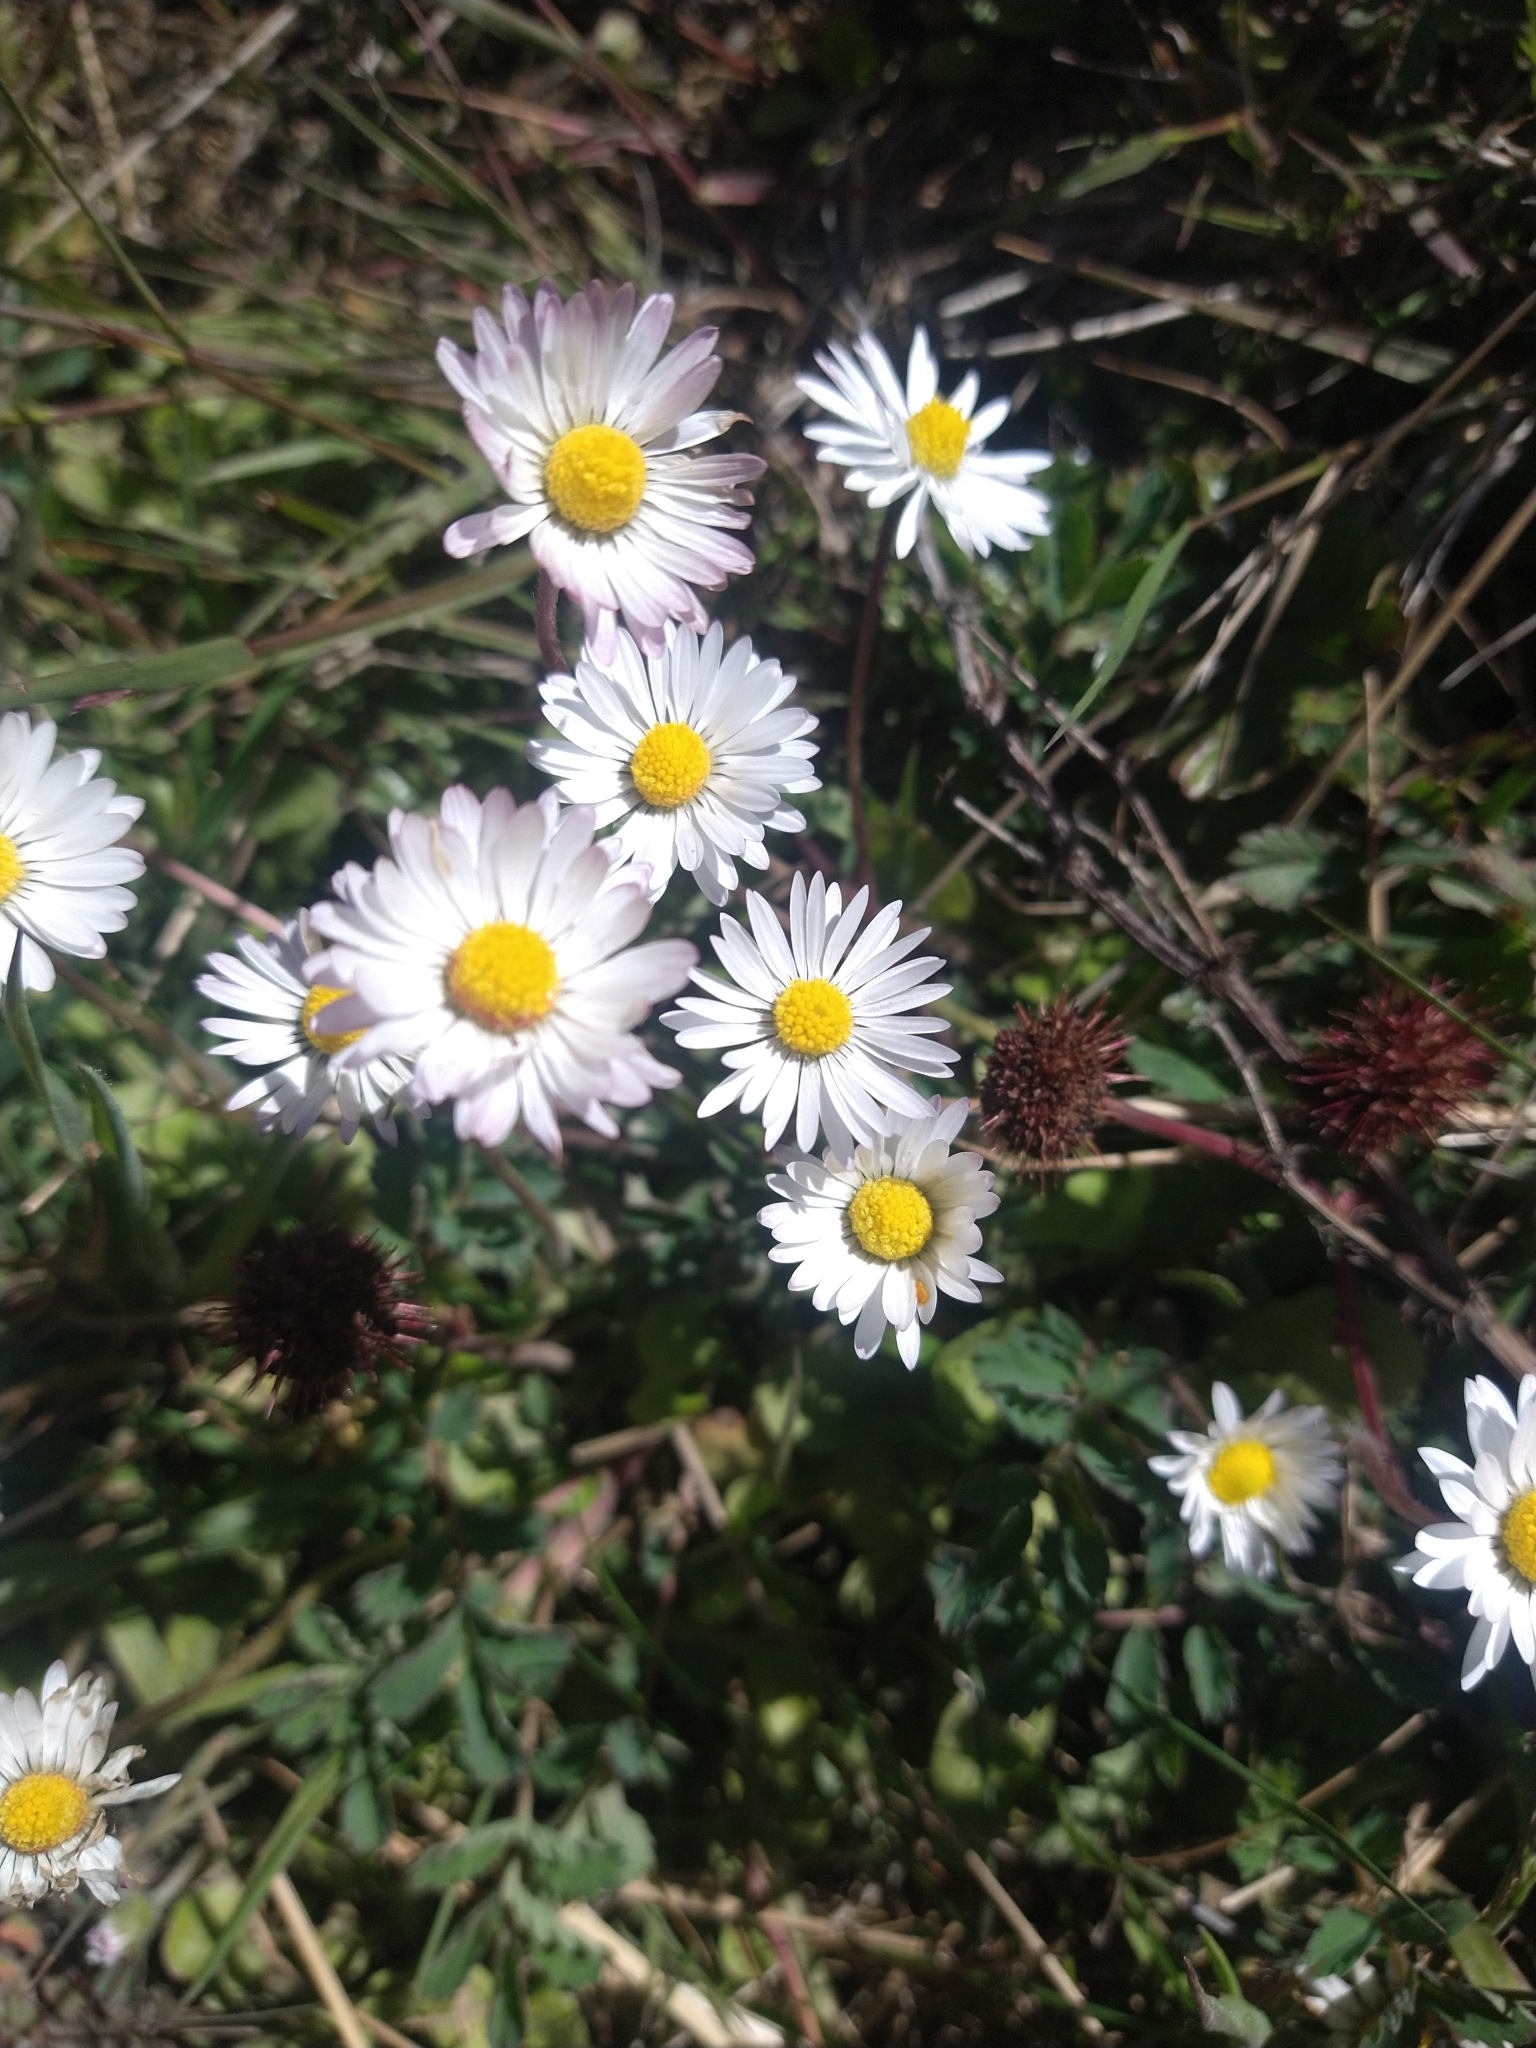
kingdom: Plantae
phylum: Tracheophyta
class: Magnoliopsida
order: Asterales
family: Asteraceae
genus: Bellis
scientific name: Bellis perennis
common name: Lawndaisy
